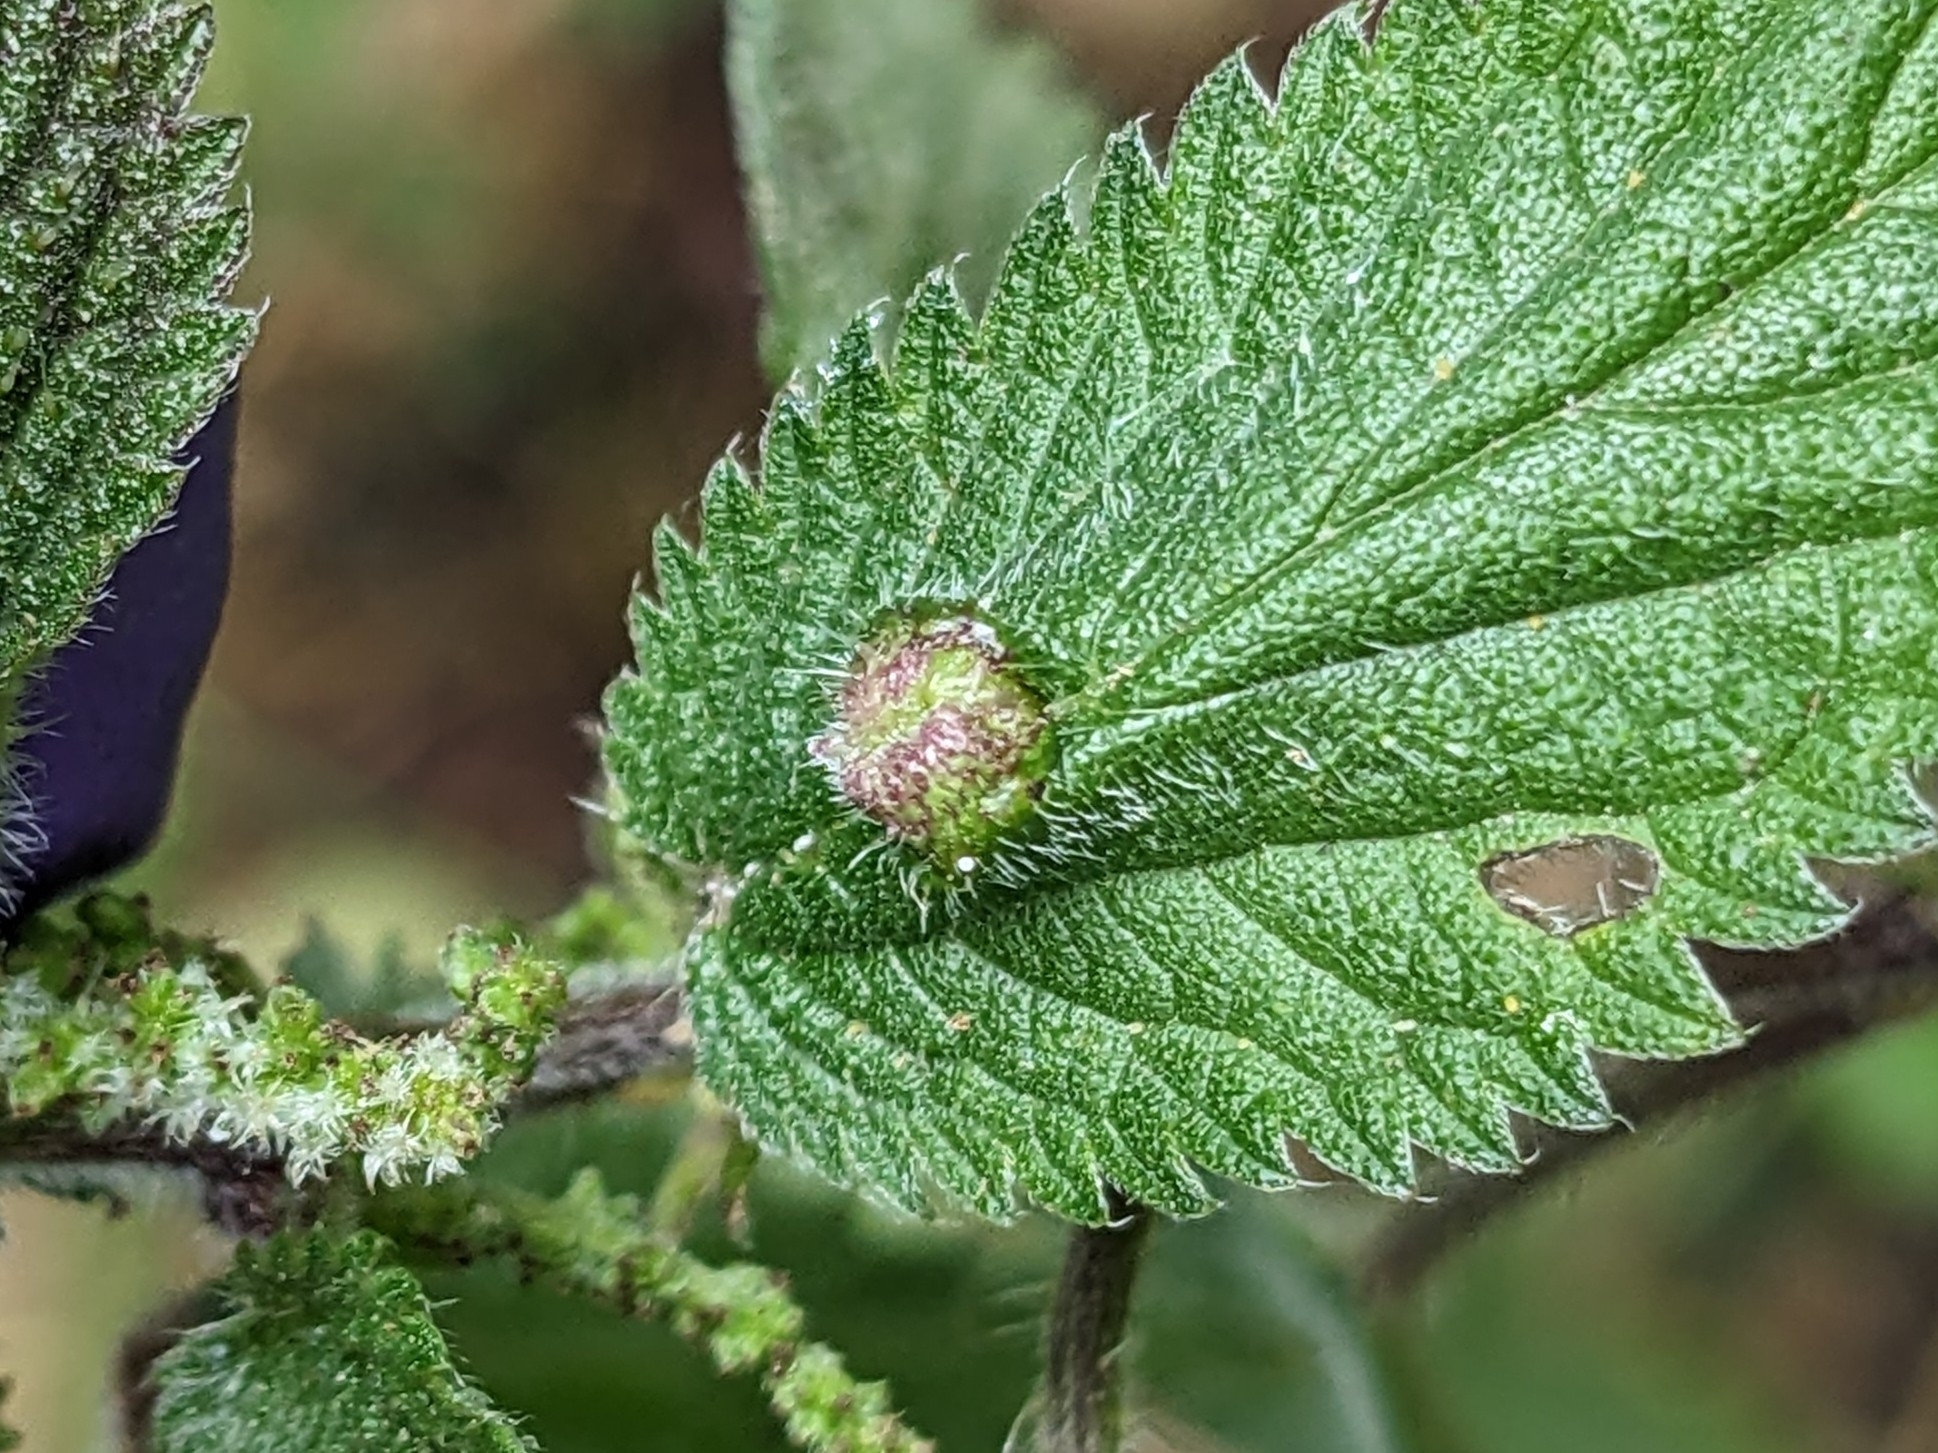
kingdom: Animalia
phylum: Arthropoda
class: Insecta
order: Diptera
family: Cecidomyiidae
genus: Dasineura
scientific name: Dasineura urticae
